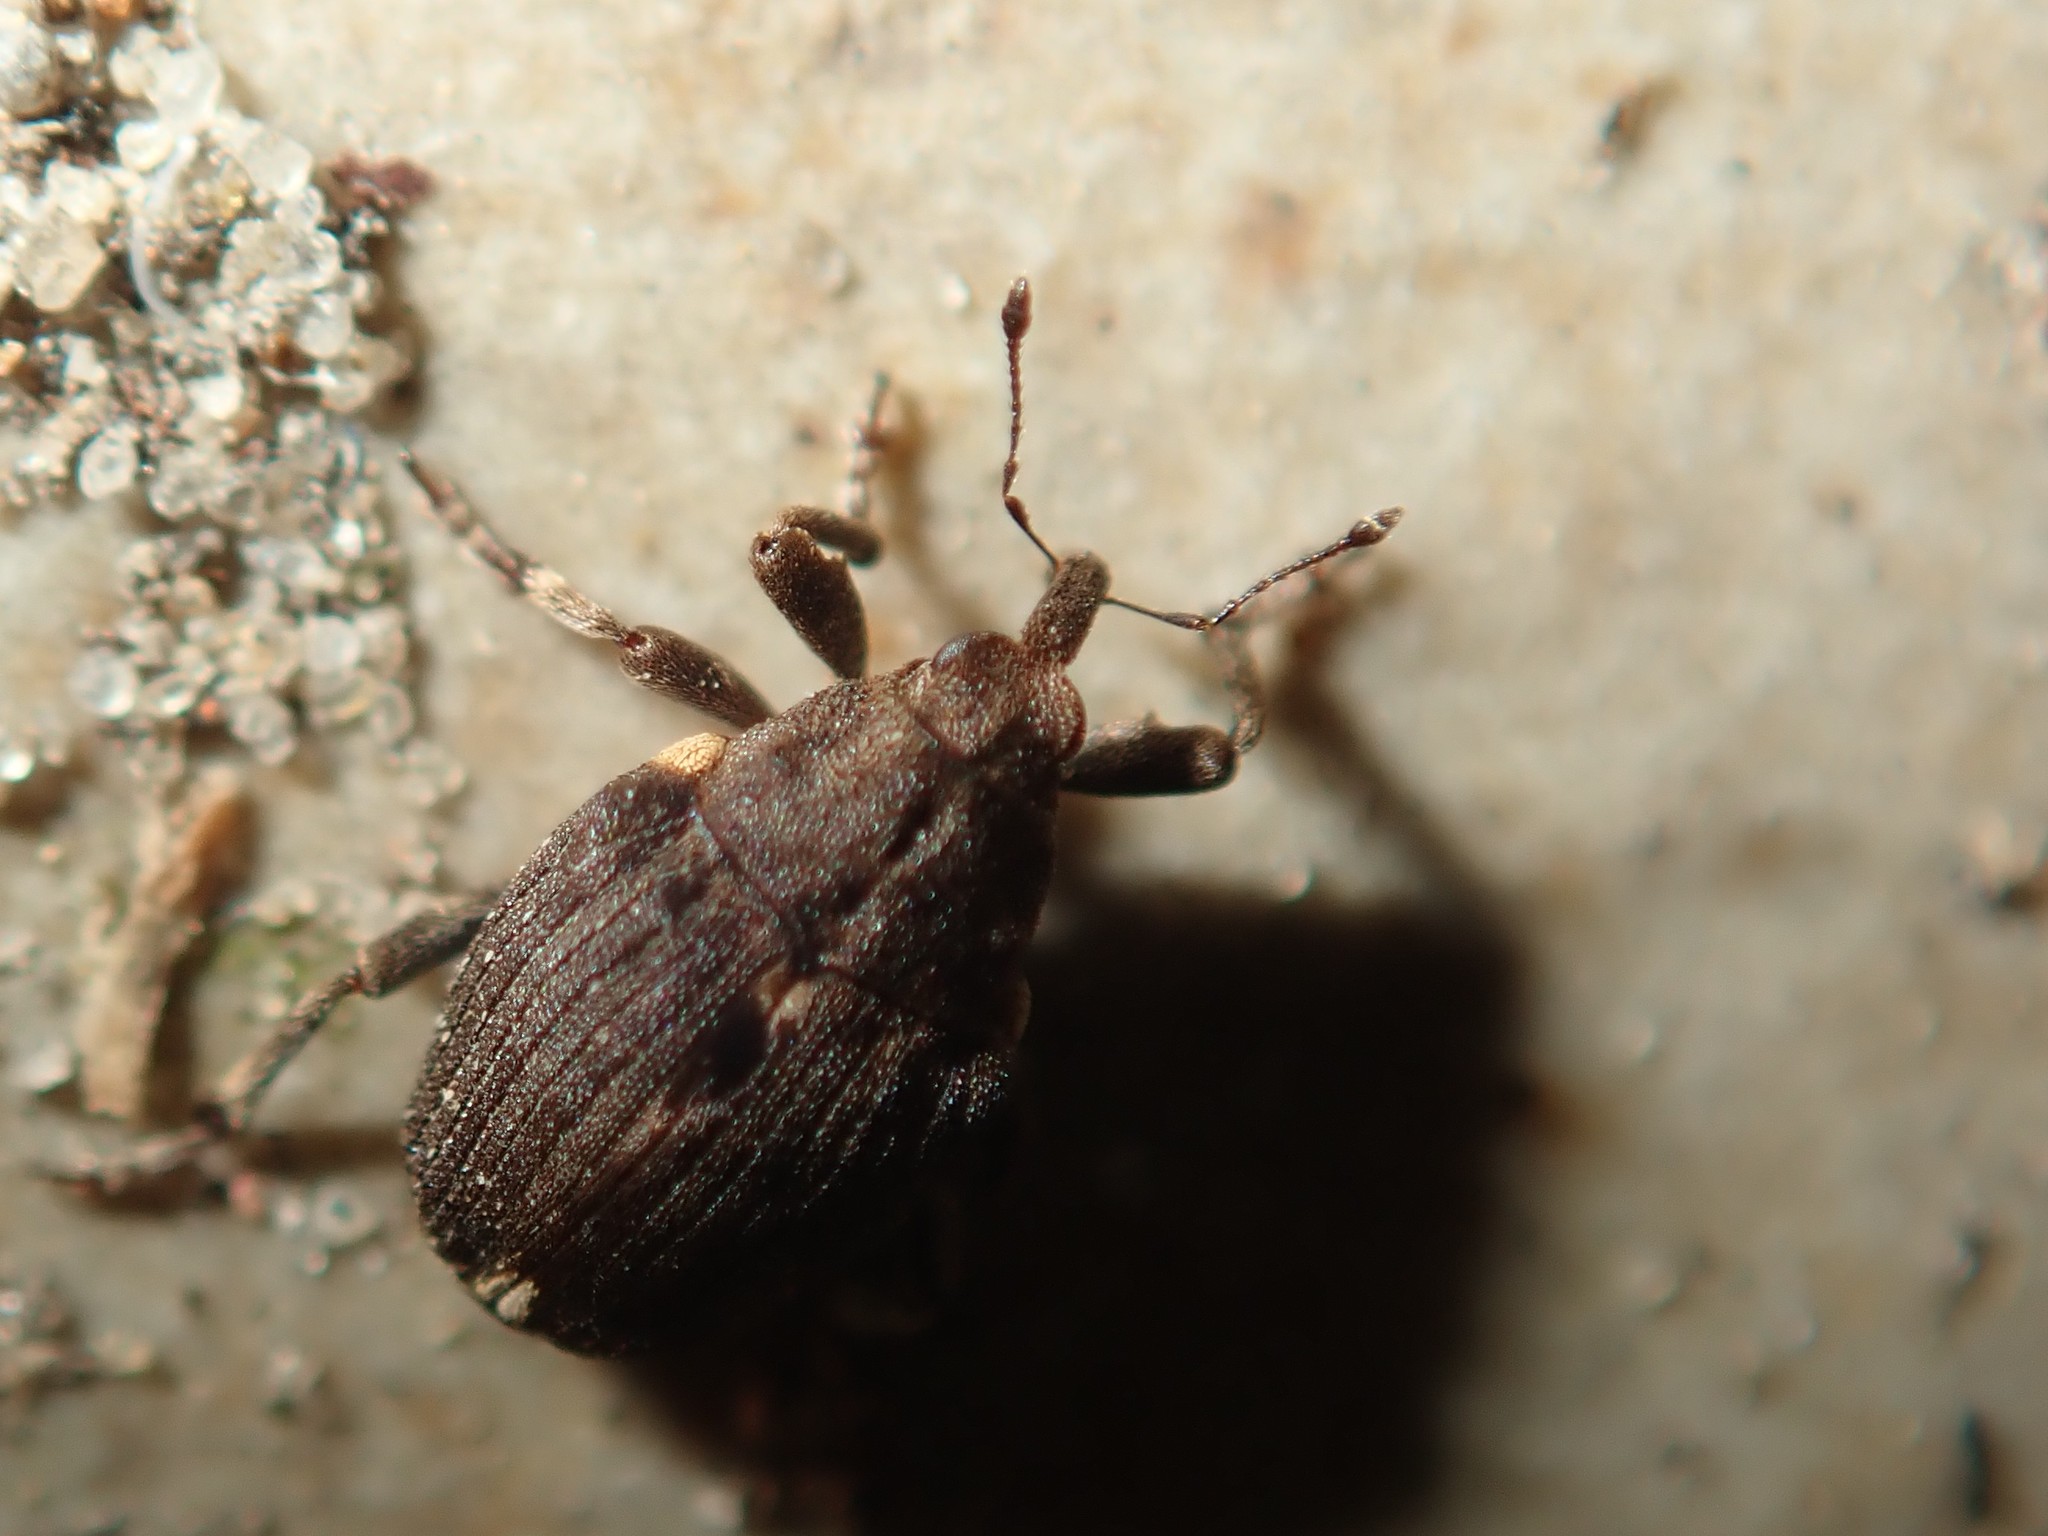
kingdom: Animalia
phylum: Arthropoda
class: Insecta
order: Coleoptera
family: Curculionidae
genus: Stenocarus
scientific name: Stenocarus ruficornis
